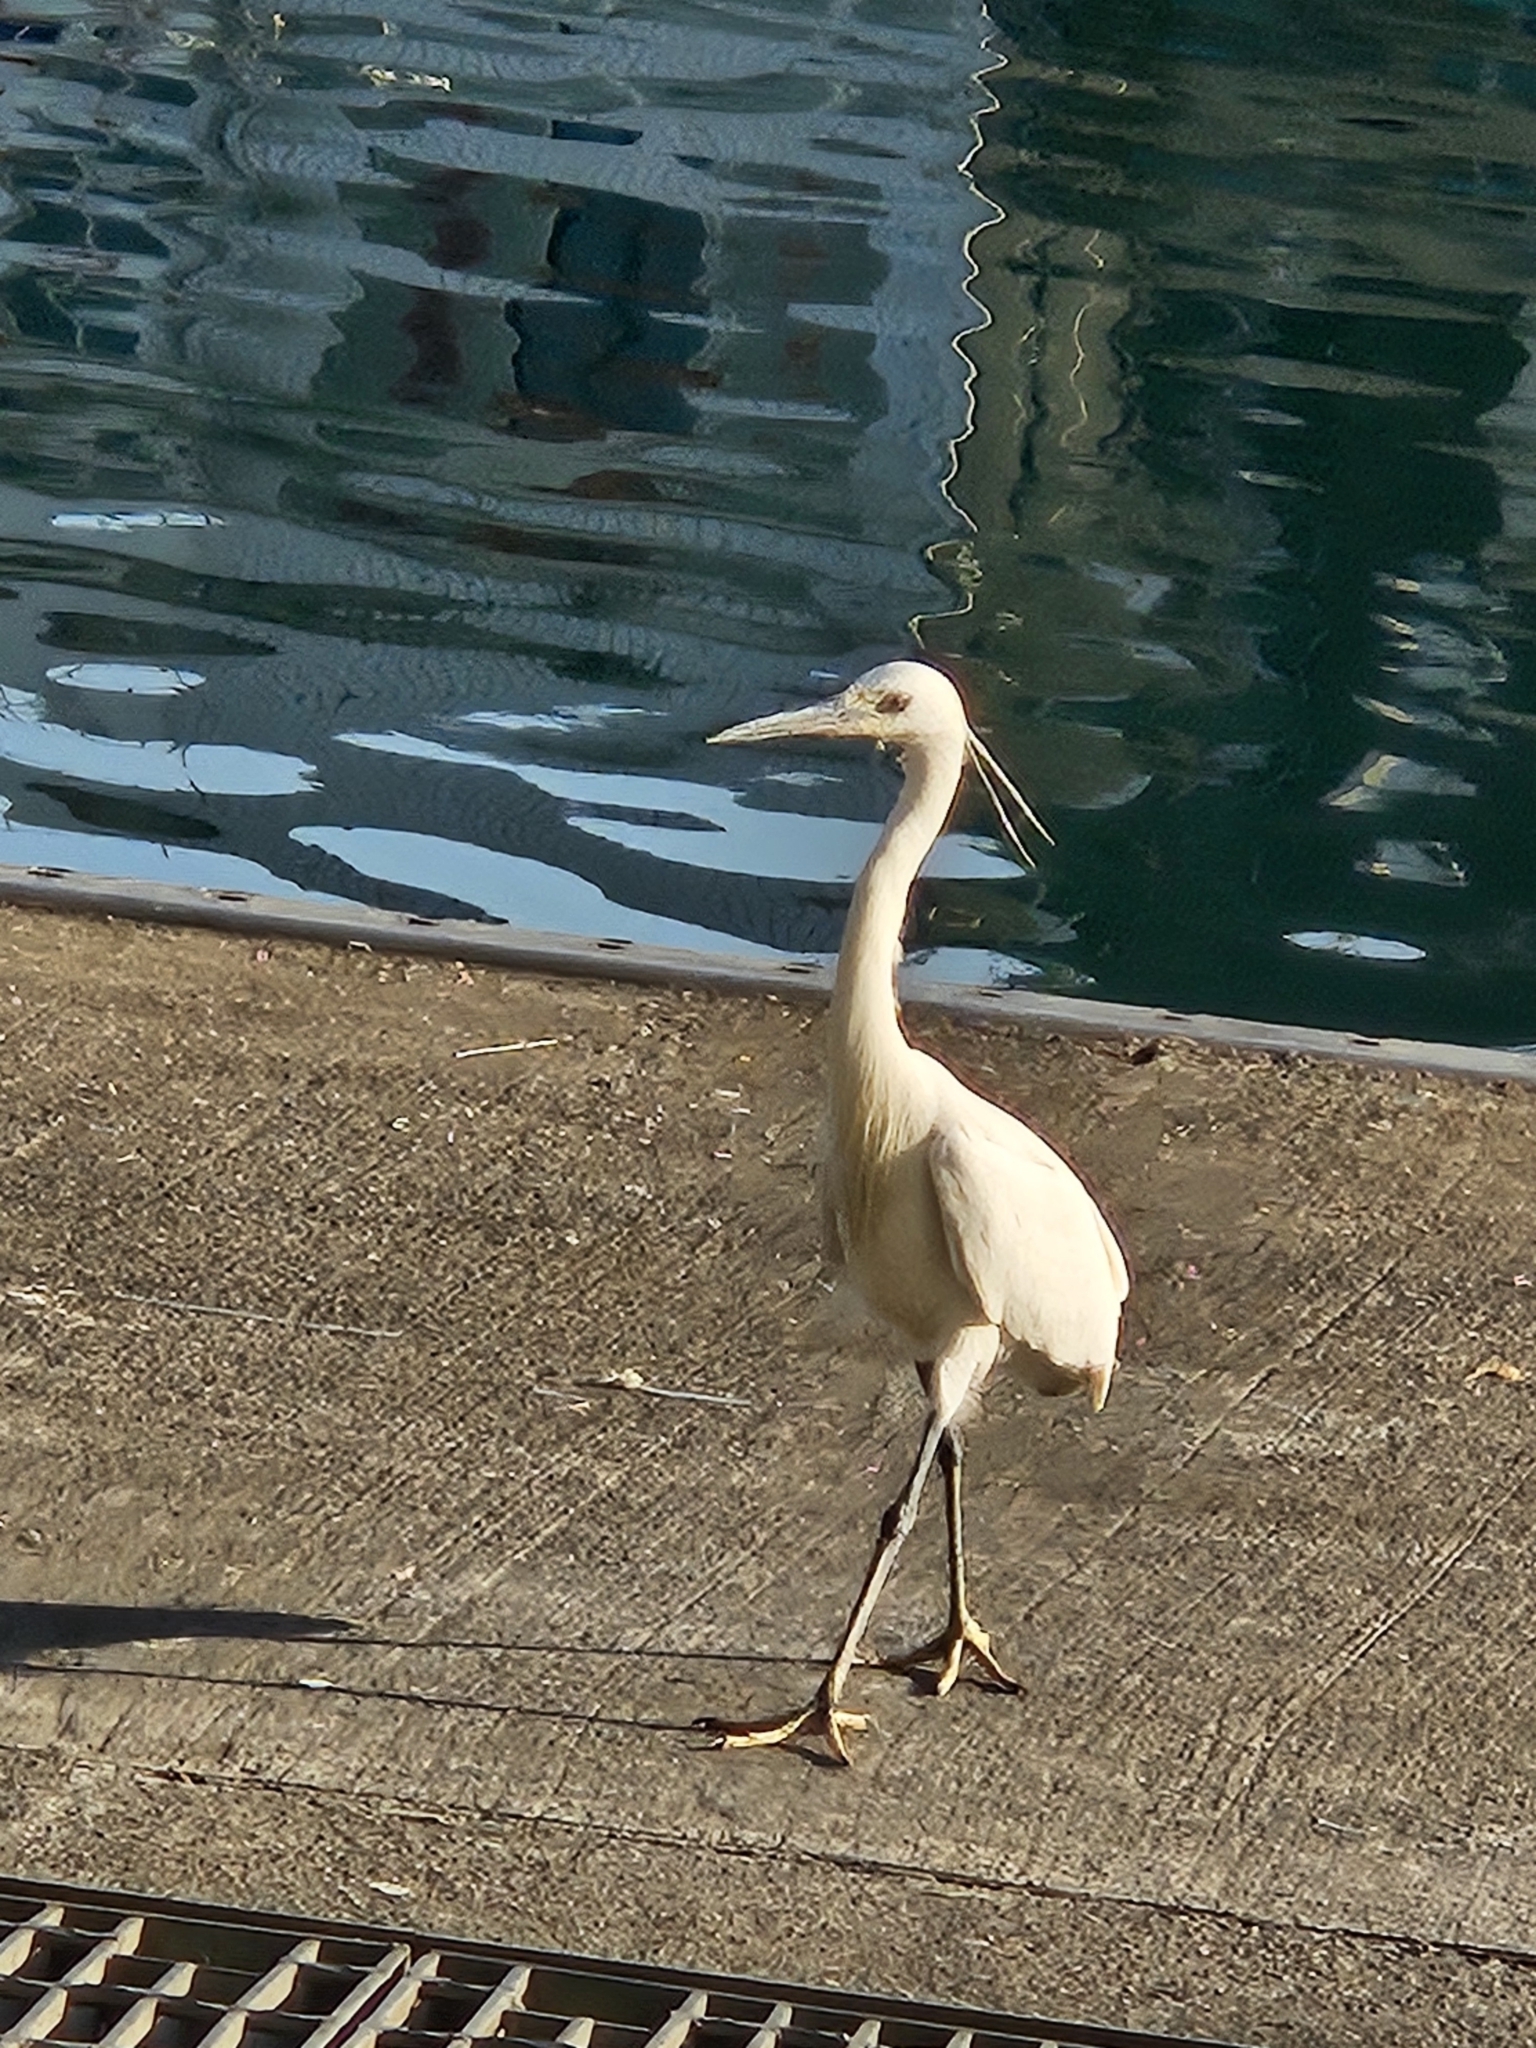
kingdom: Animalia
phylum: Chordata
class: Aves
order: Pelecaniformes
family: Ardeidae
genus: Egretta
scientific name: Egretta garzetta
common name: Little egret
